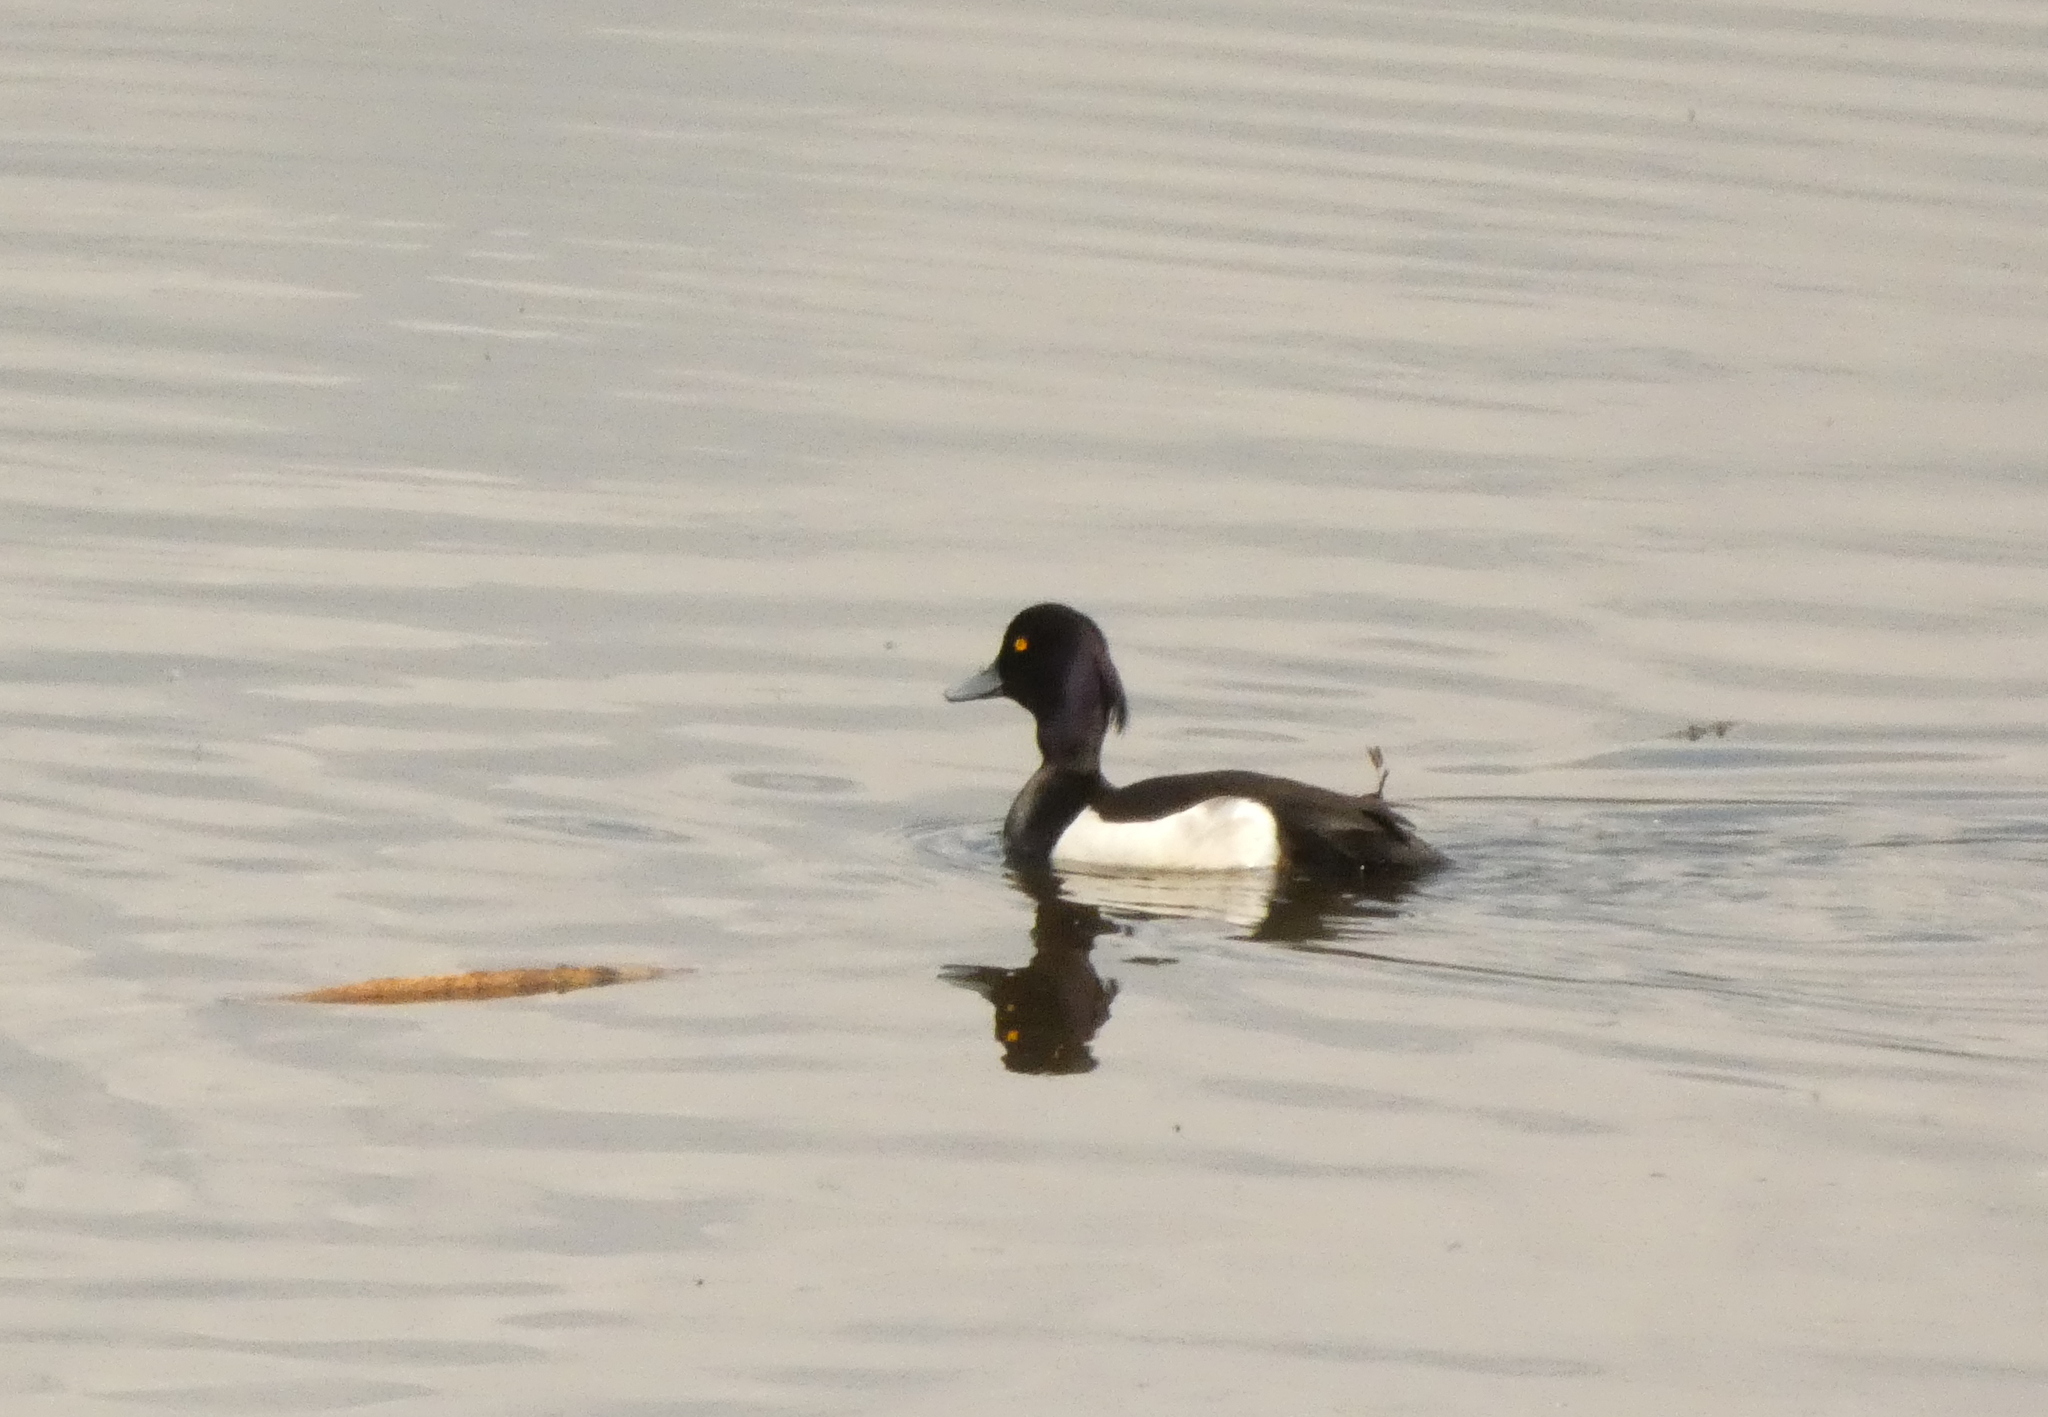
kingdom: Animalia
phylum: Chordata
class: Aves
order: Anseriformes
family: Anatidae
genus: Aythya
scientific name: Aythya fuligula
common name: Tufted duck
